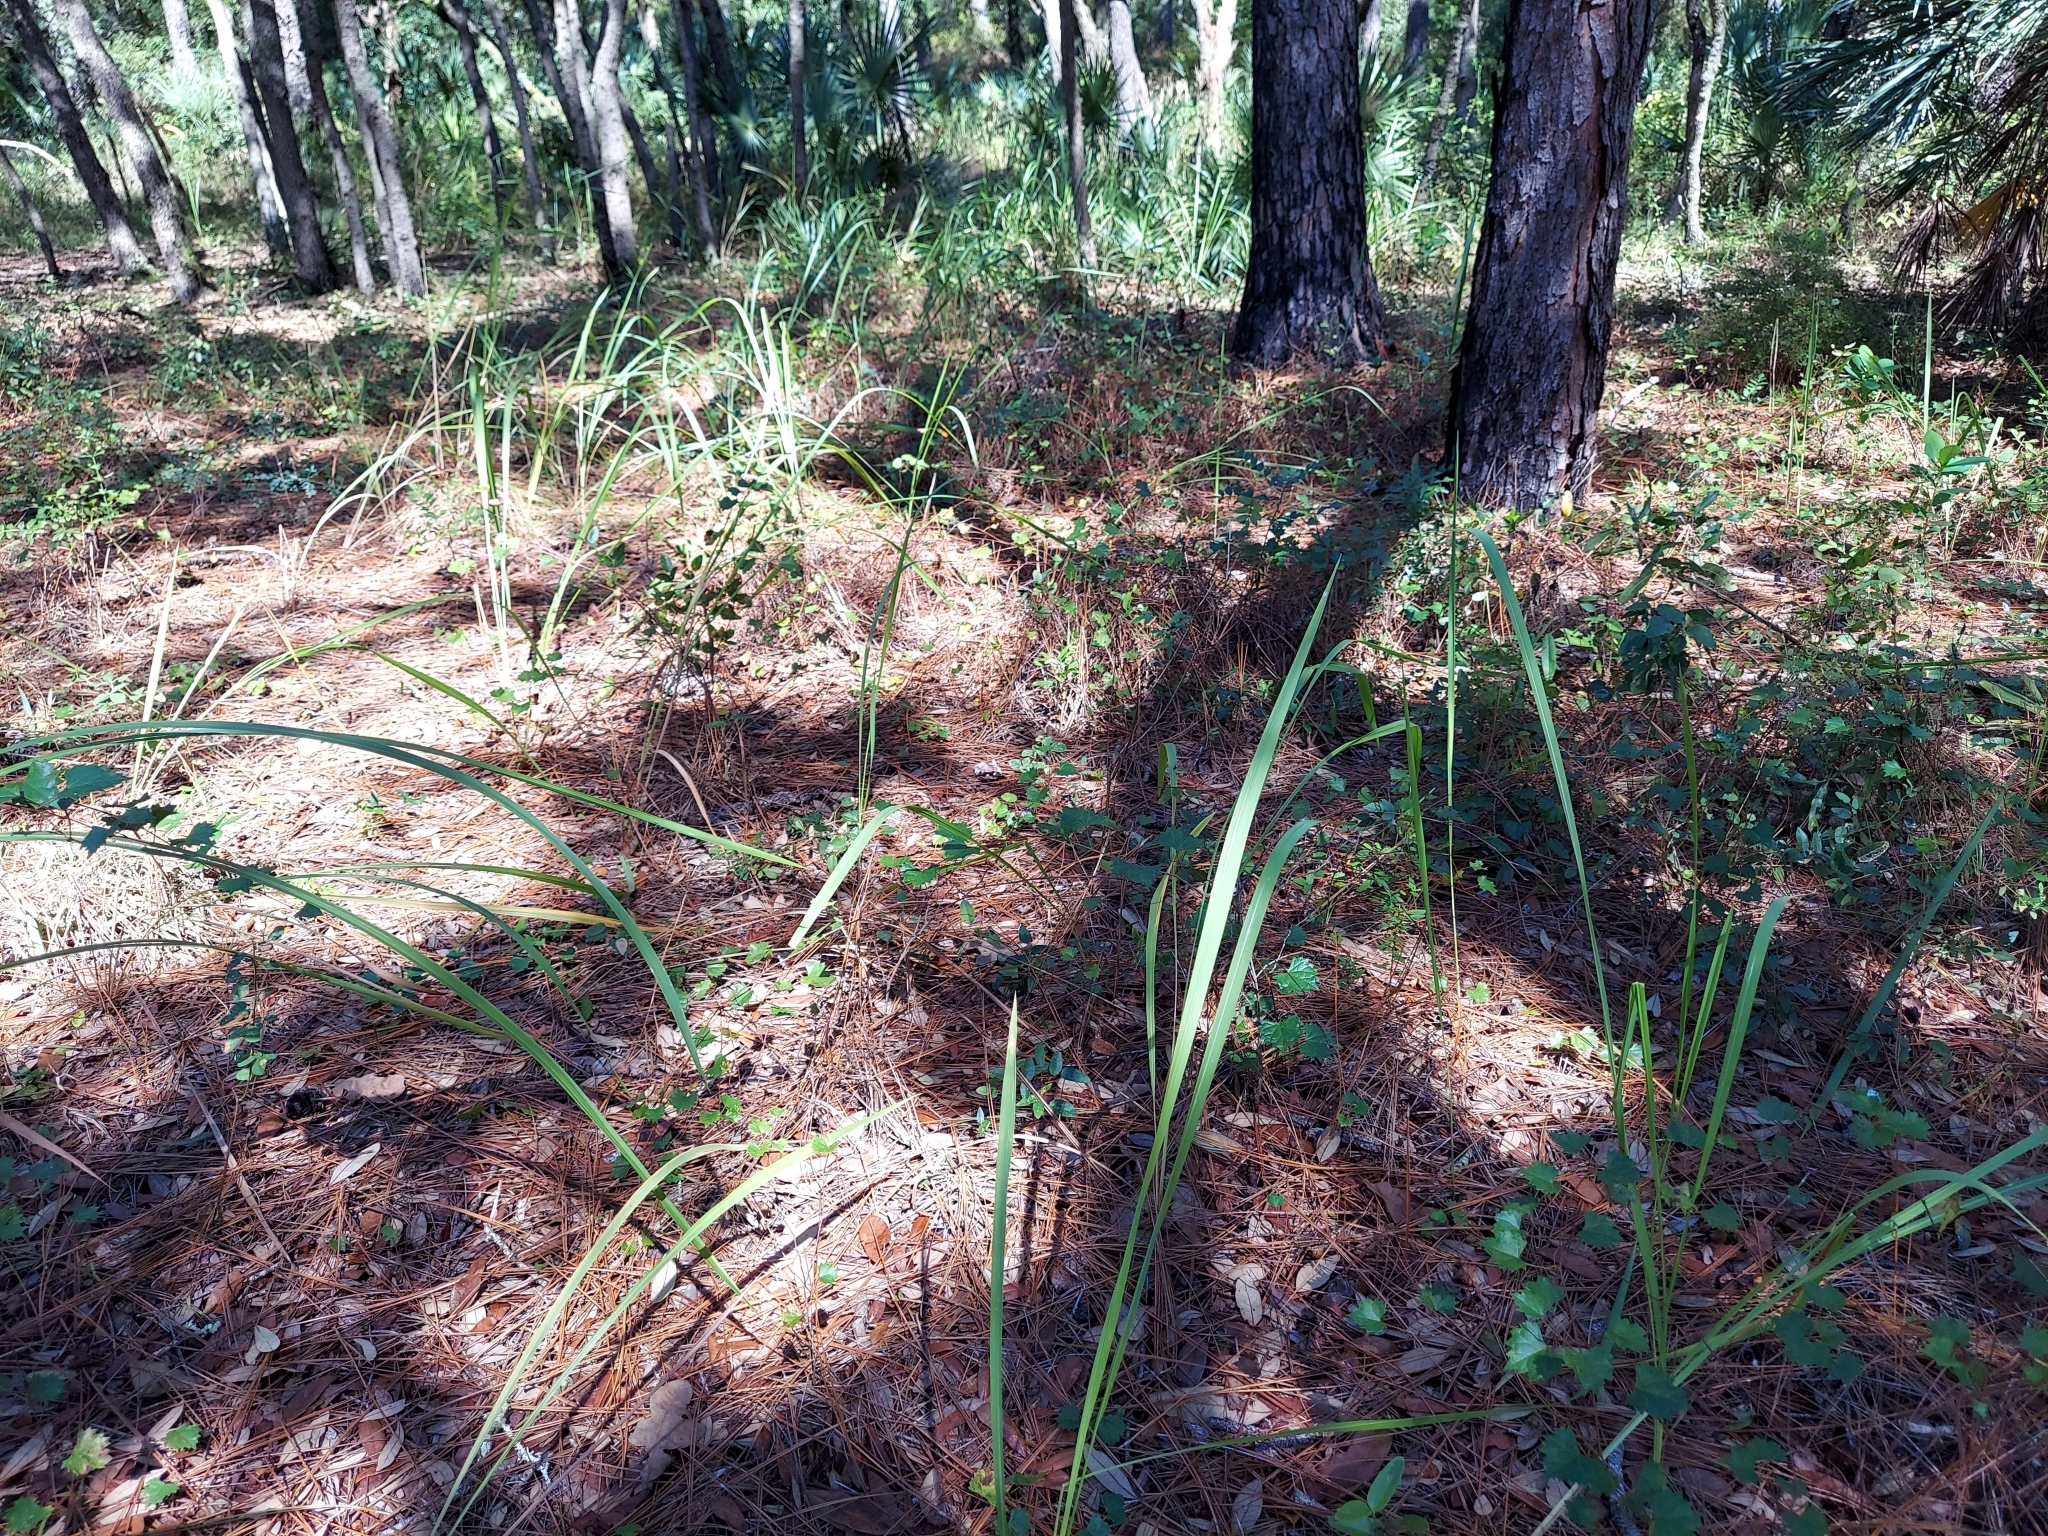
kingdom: Plantae
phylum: Tracheophyta
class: Liliopsida
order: Poales
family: Poaceae
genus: Imperata
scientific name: Imperata cylindrica
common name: Cogongrass
